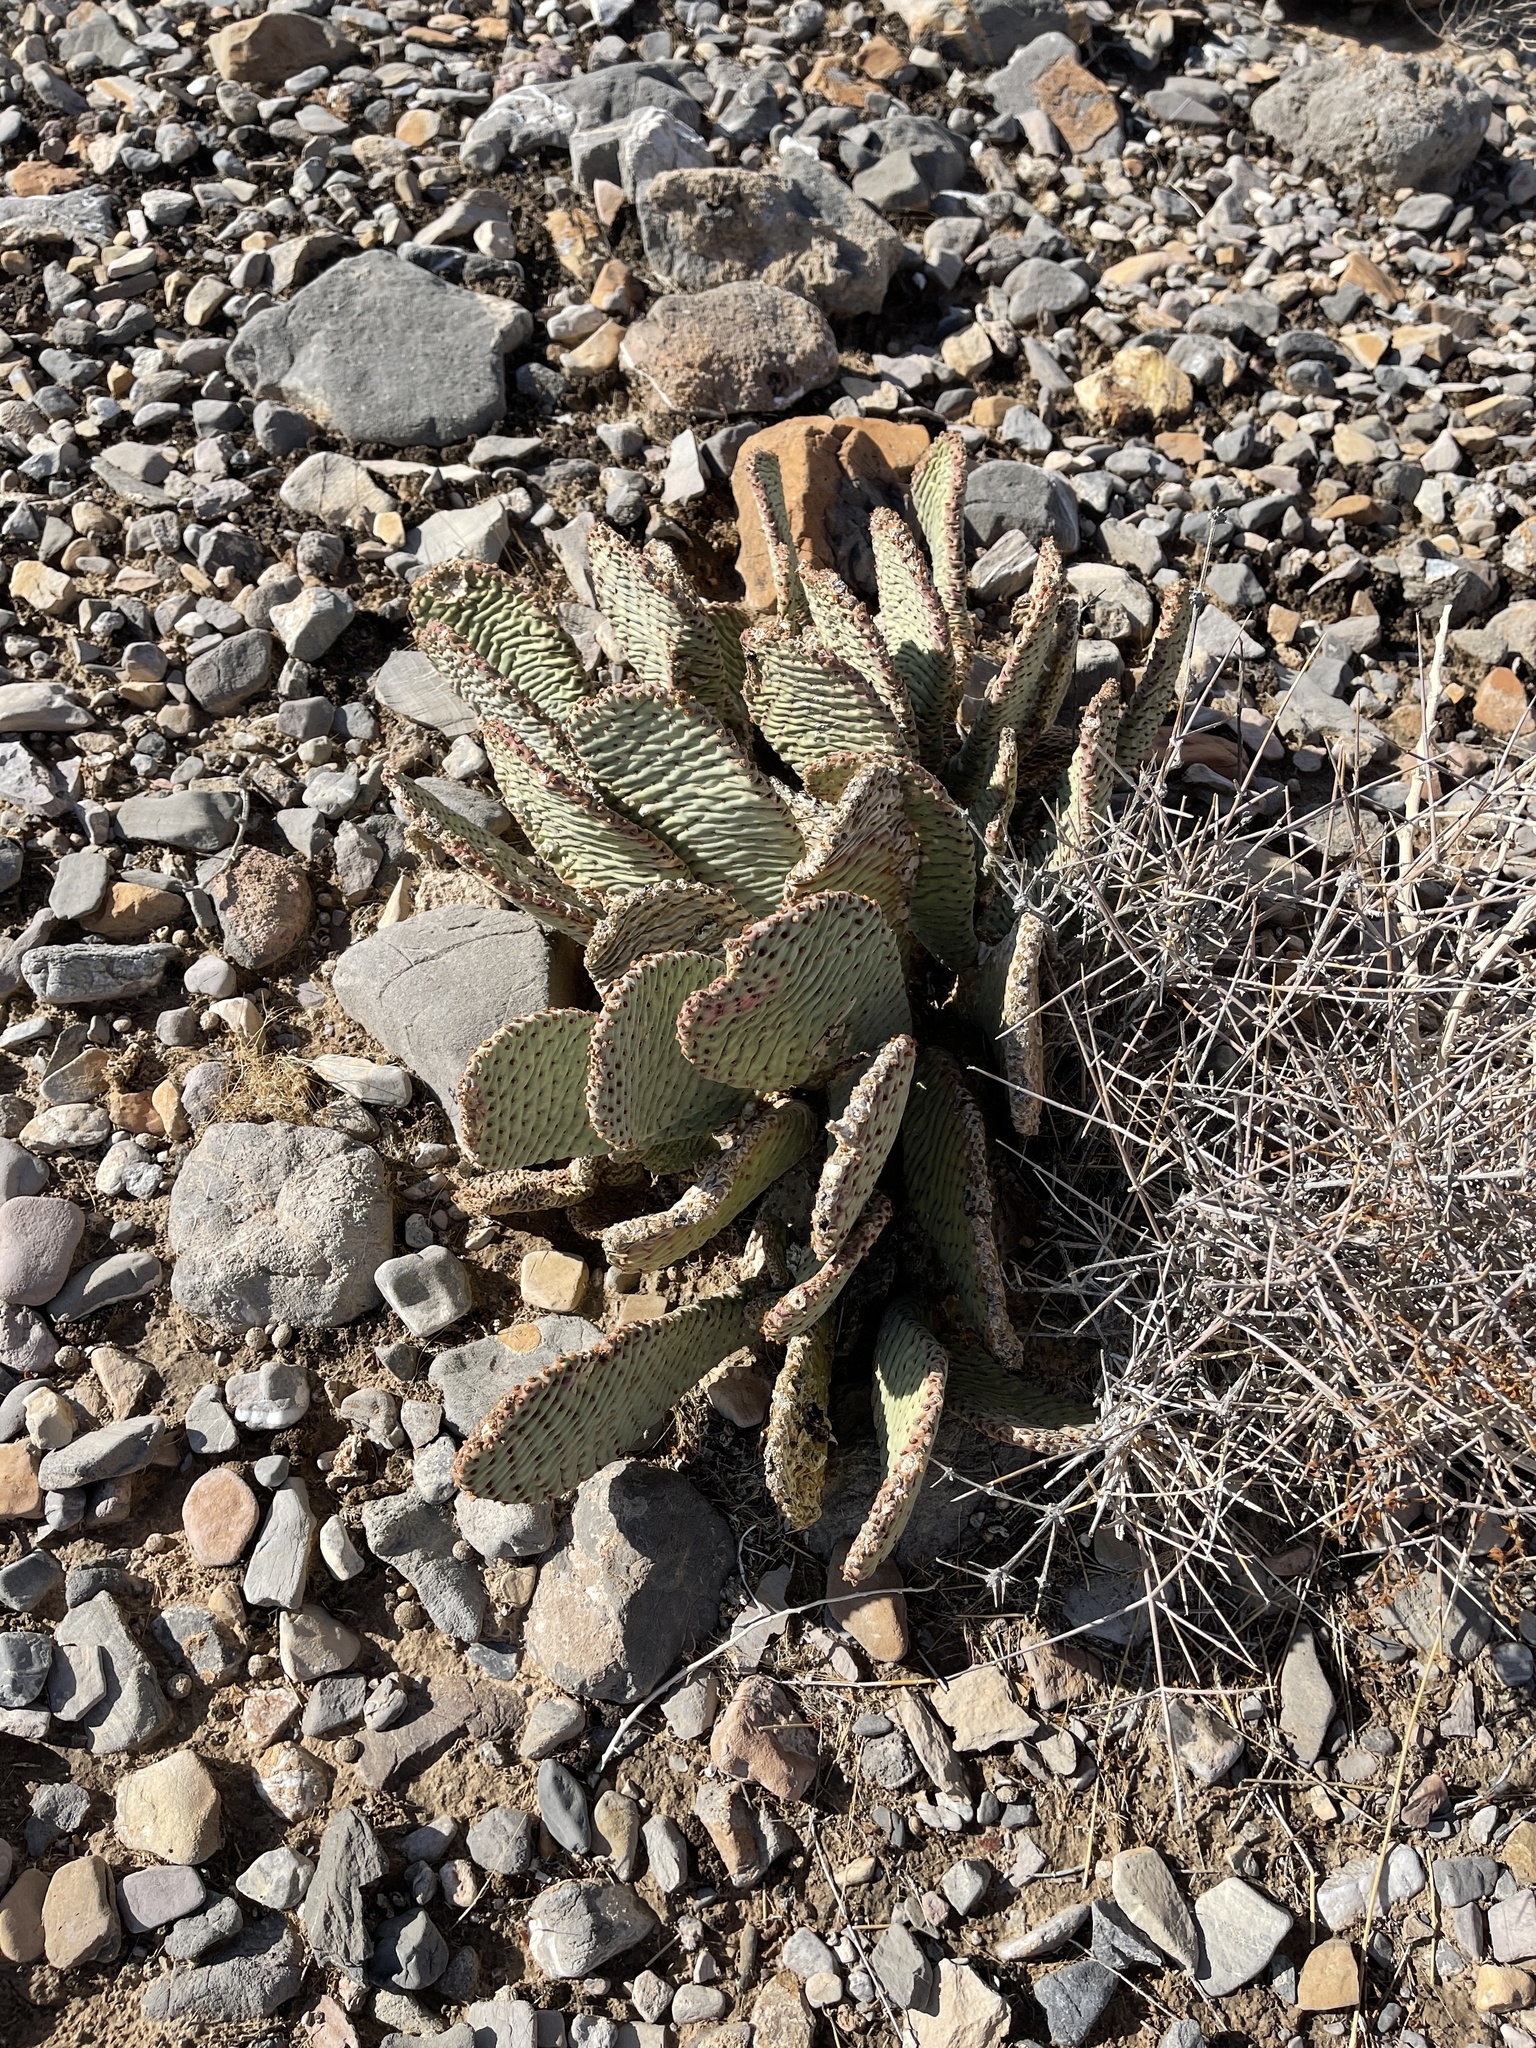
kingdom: Plantae
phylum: Tracheophyta
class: Magnoliopsida
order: Caryophyllales
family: Cactaceae
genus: Opuntia
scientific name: Opuntia basilaris
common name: Beavertail prickly-pear
